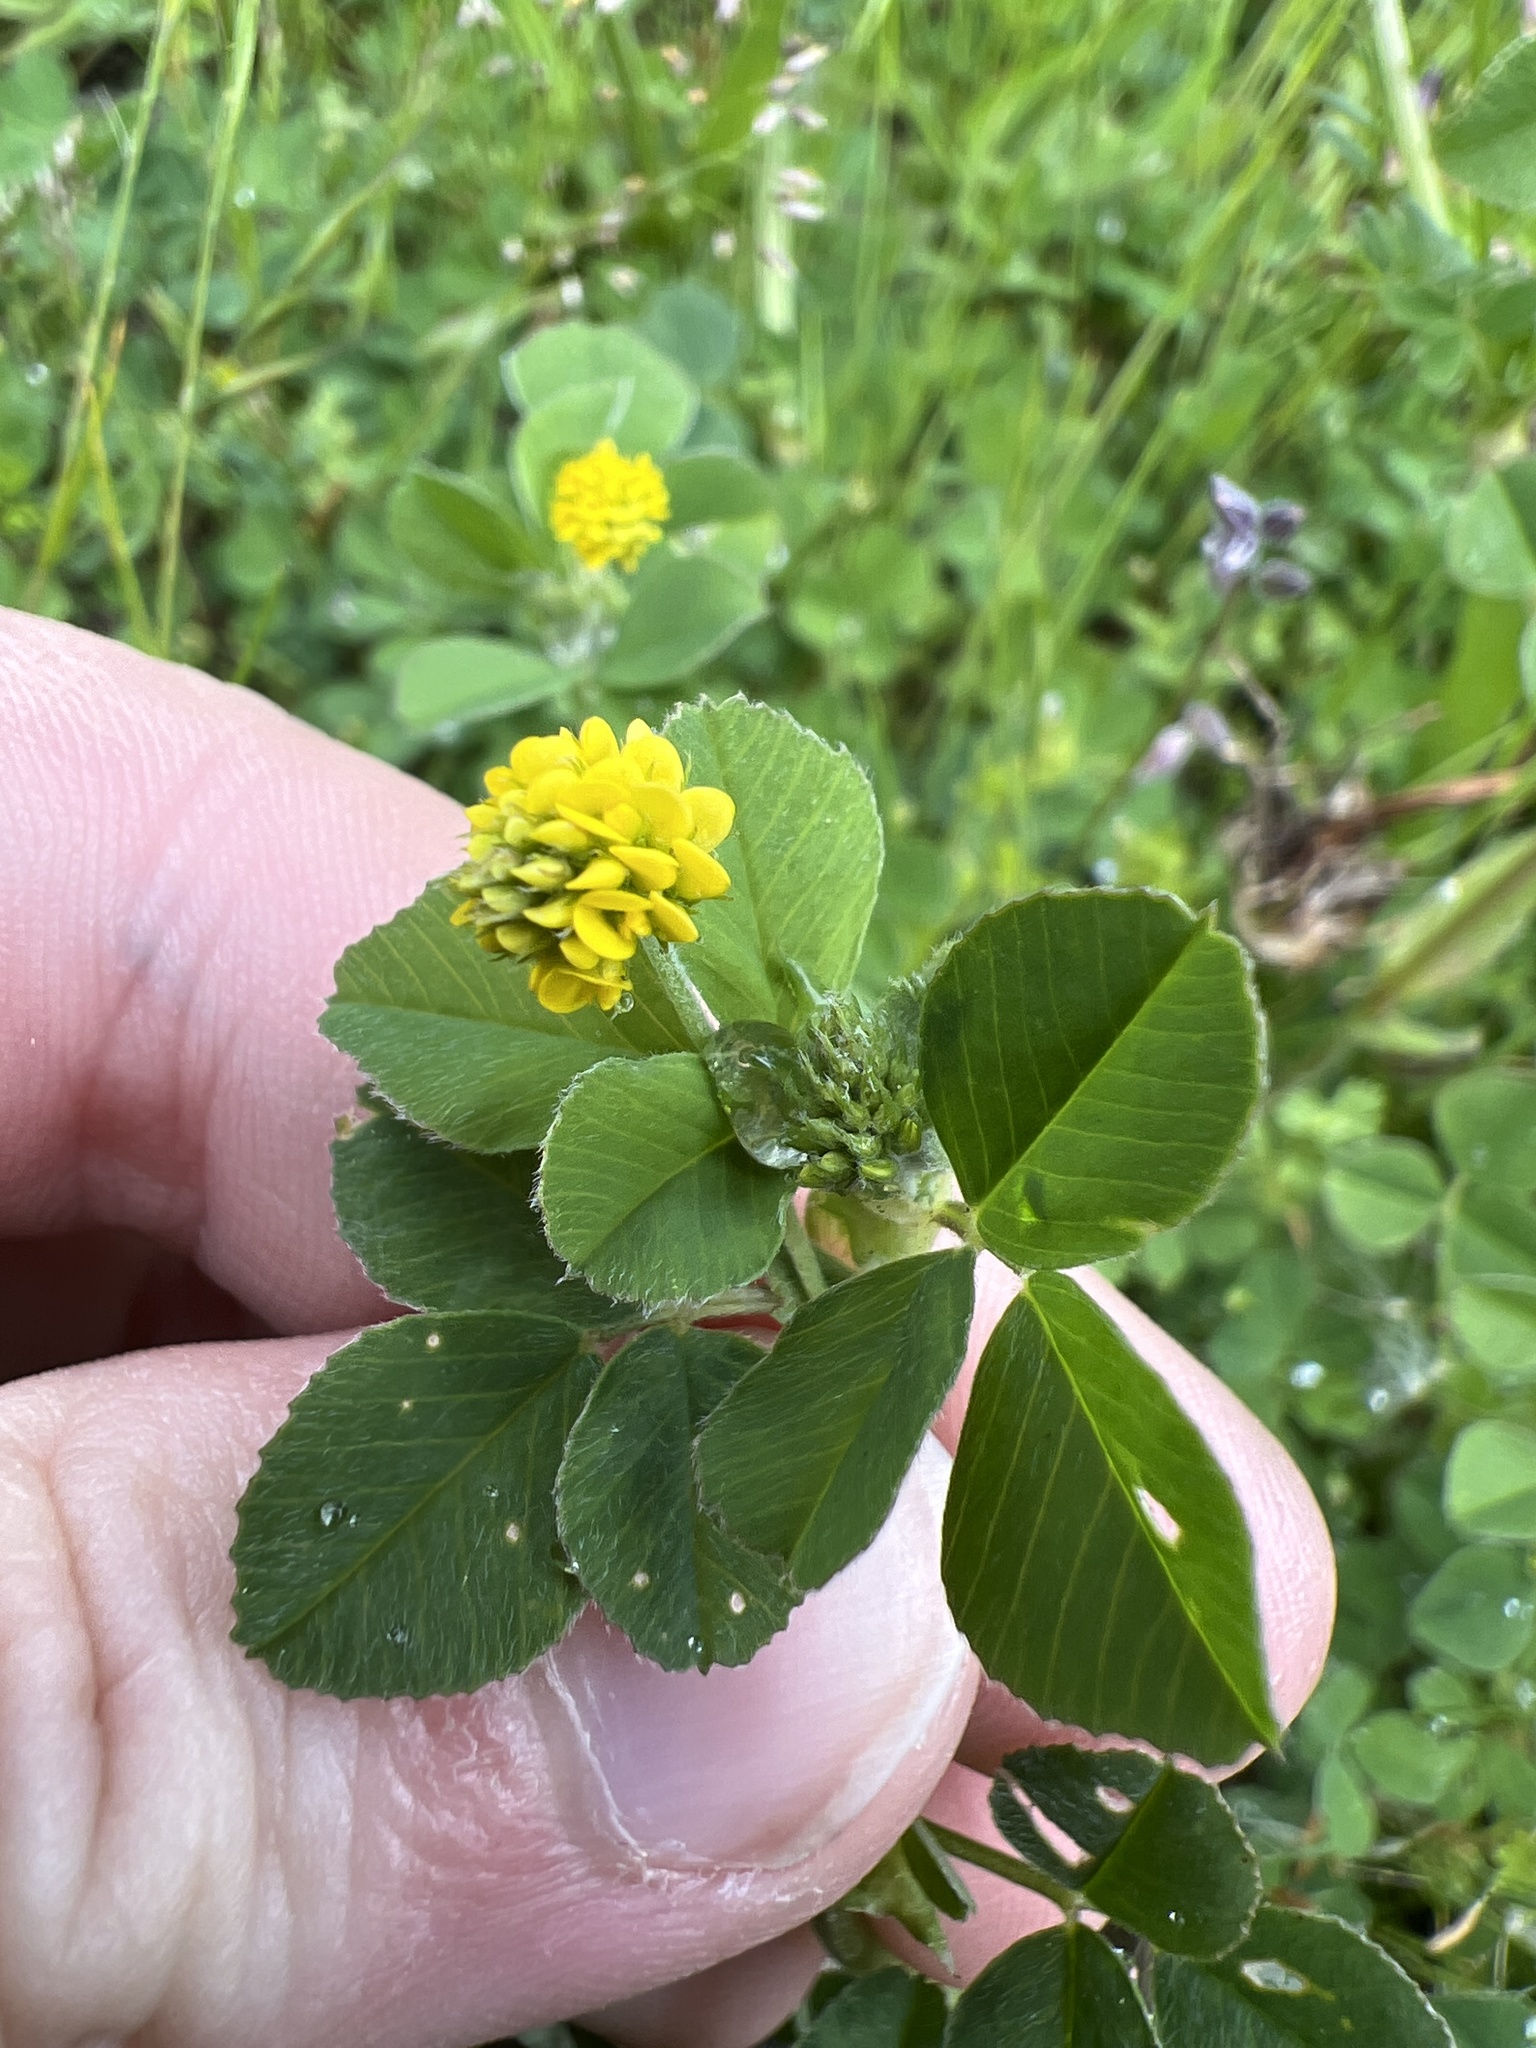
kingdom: Plantae
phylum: Tracheophyta
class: Magnoliopsida
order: Fabales
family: Fabaceae
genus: Medicago
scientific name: Medicago lupulina
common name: Black medick
